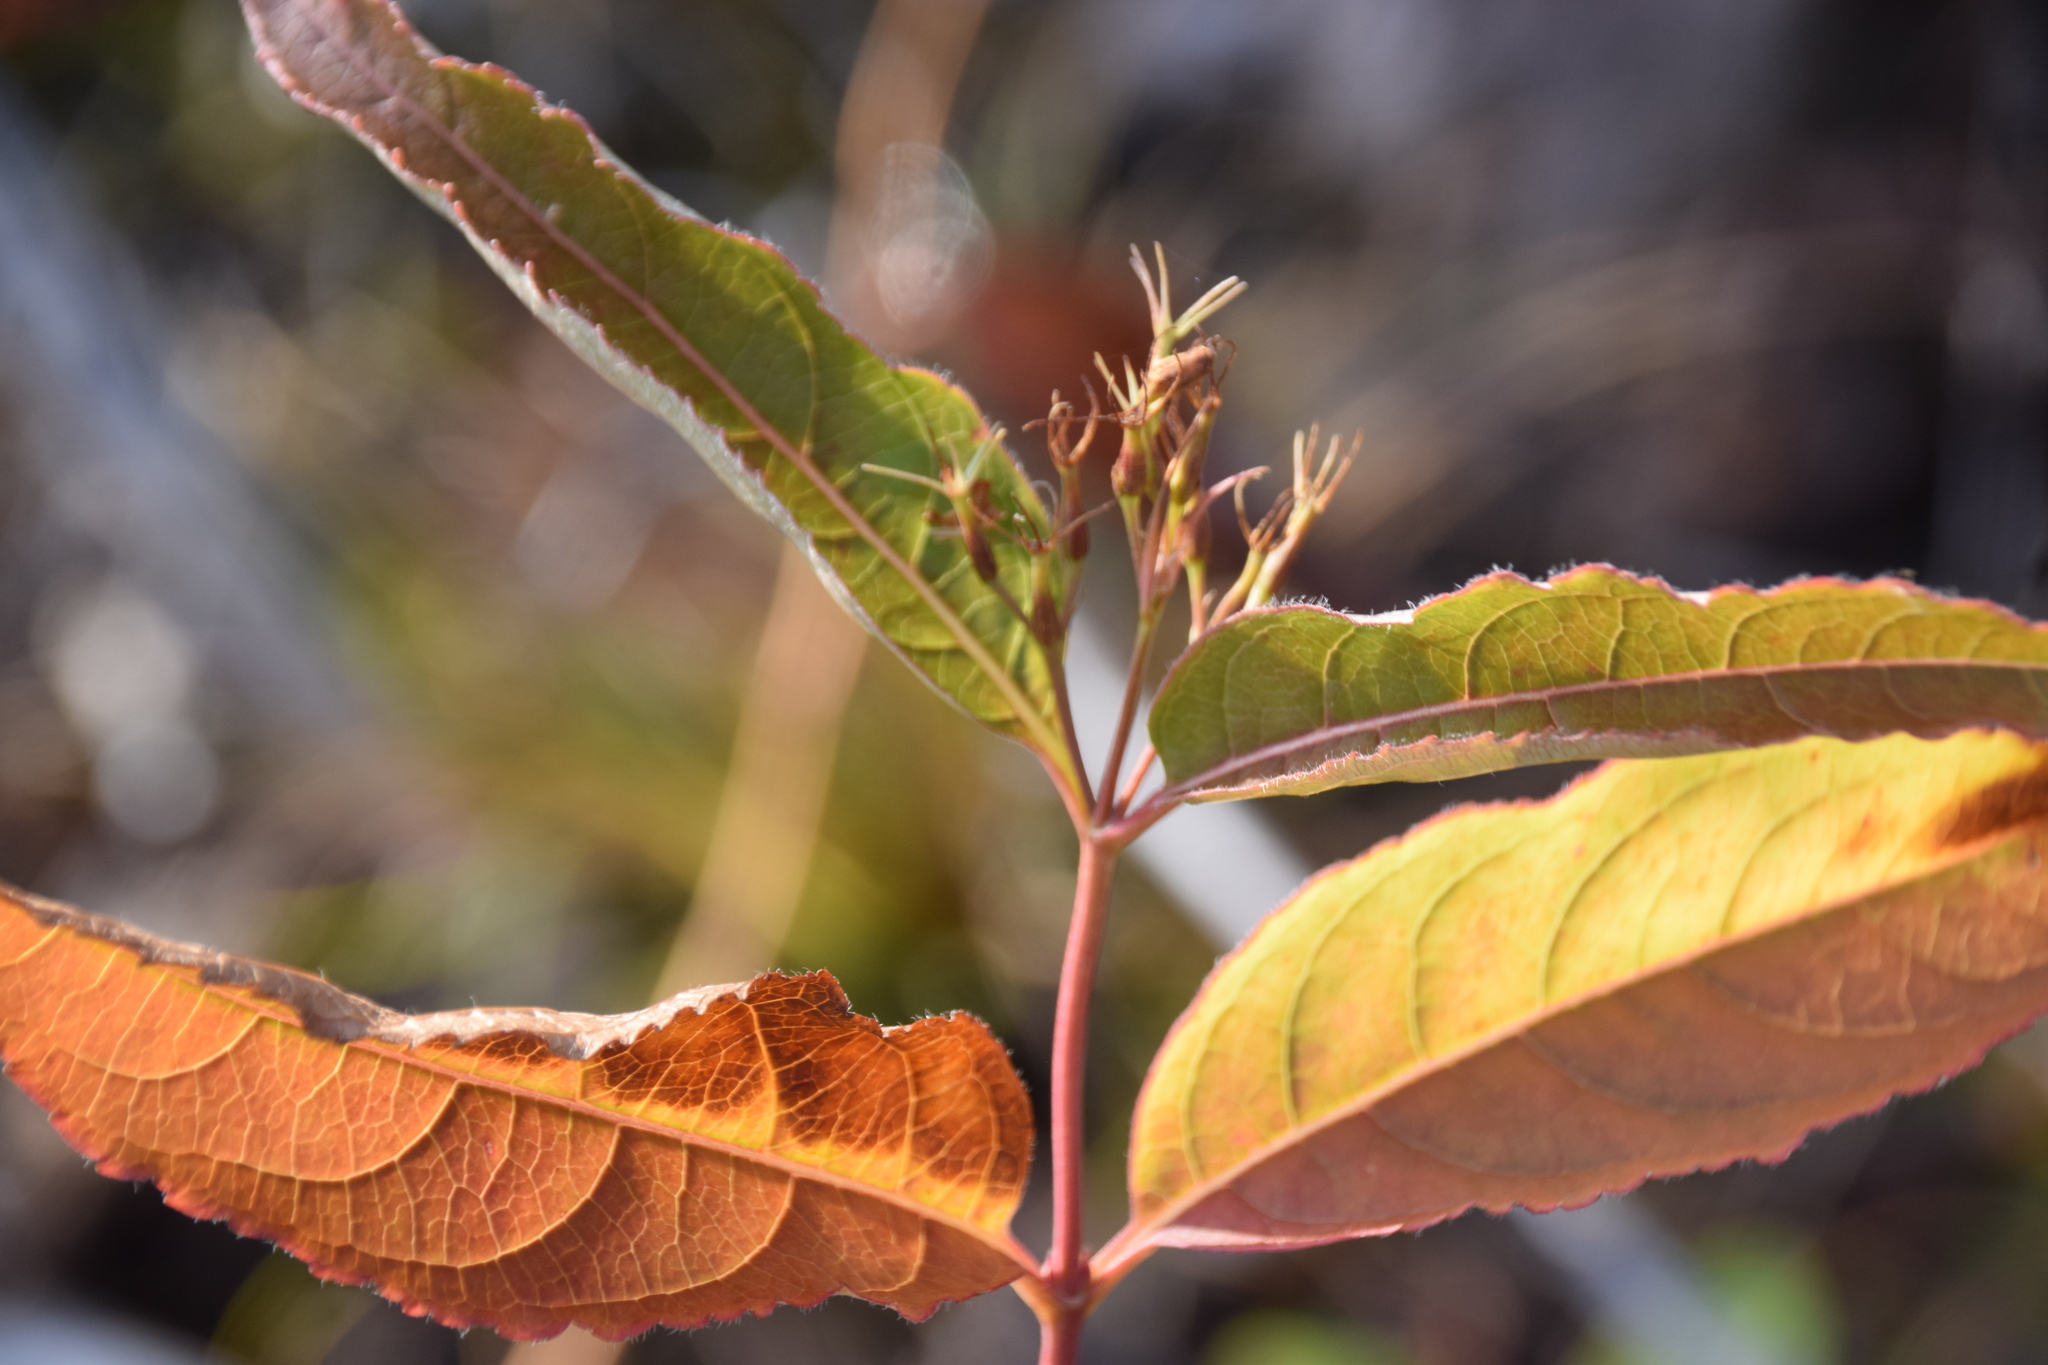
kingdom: Plantae
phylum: Tracheophyta
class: Magnoliopsida
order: Dipsacales
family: Caprifoliaceae
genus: Diervilla
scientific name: Diervilla lonicera
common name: Bush-honeysuckle
